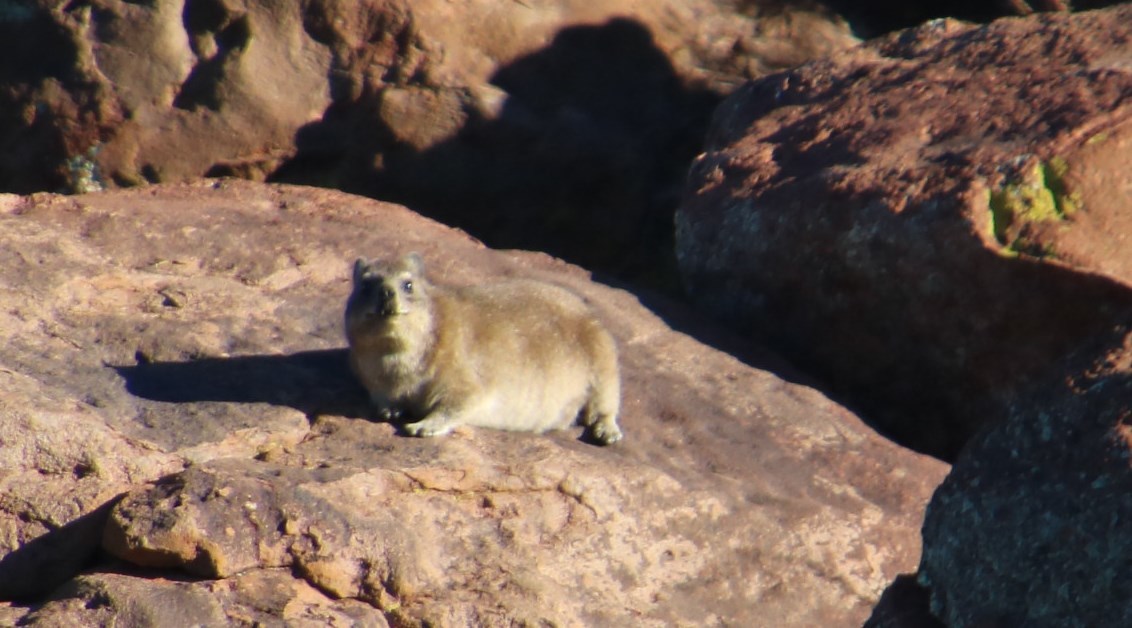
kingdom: Animalia
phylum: Chordata
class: Mammalia
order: Hyracoidea
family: Procaviidae
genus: Procavia
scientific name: Procavia capensis
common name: Rock hyrax
